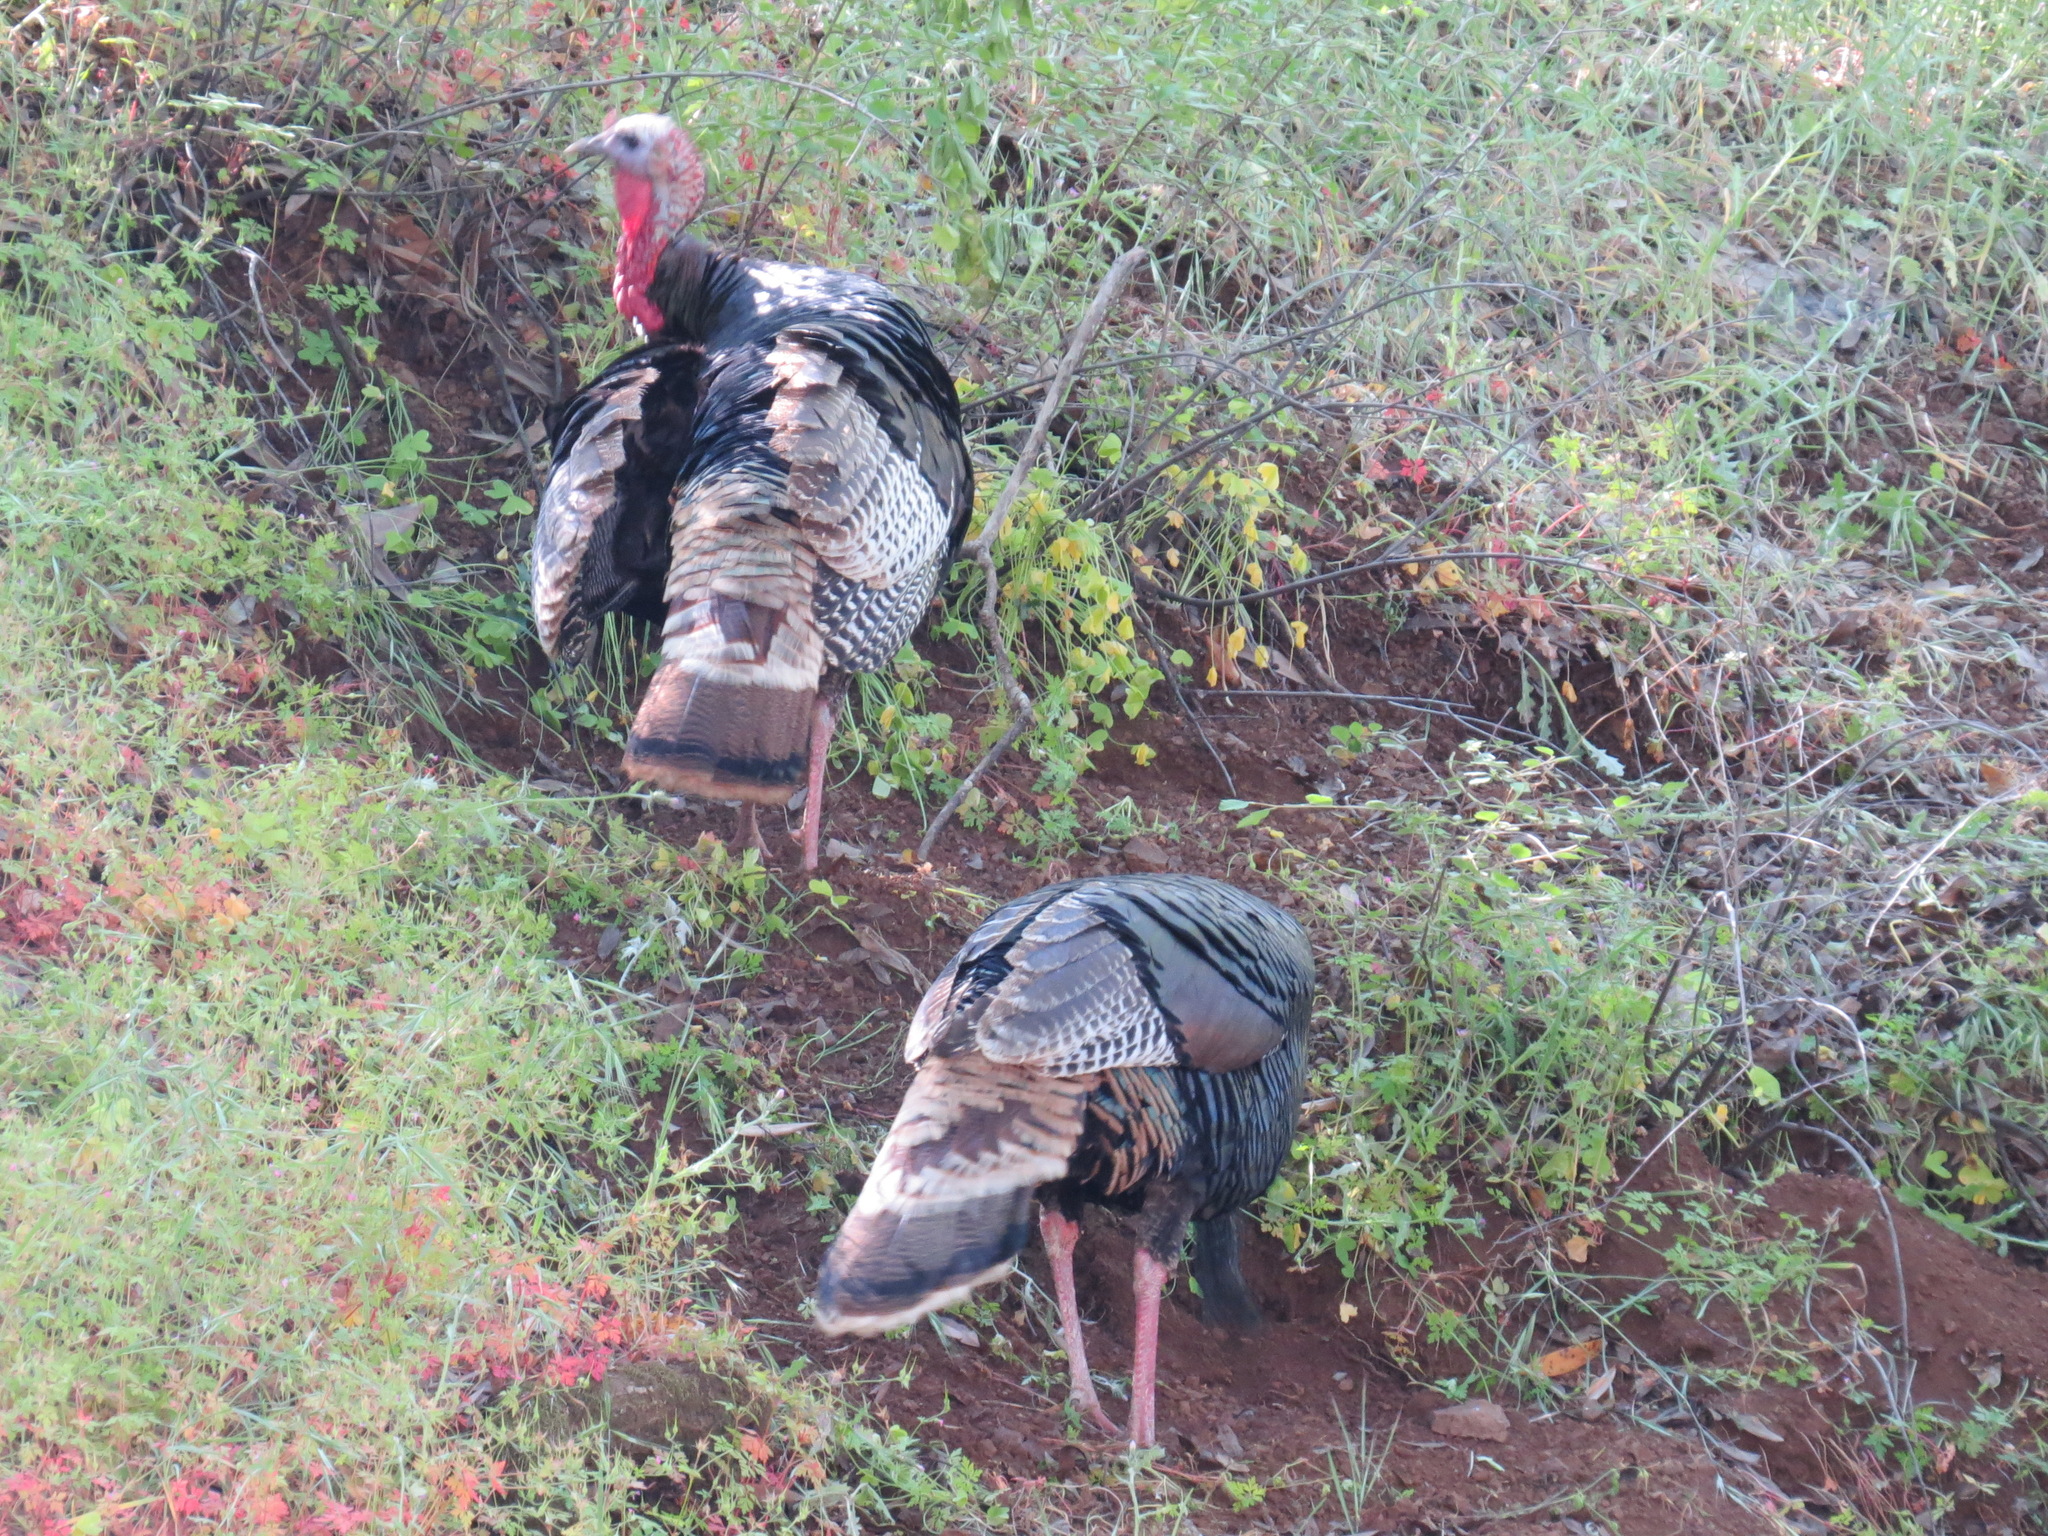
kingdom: Animalia
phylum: Chordata
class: Aves
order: Galliformes
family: Phasianidae
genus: Meleagris
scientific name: Meleagris gallopavo
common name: Wild turkey
